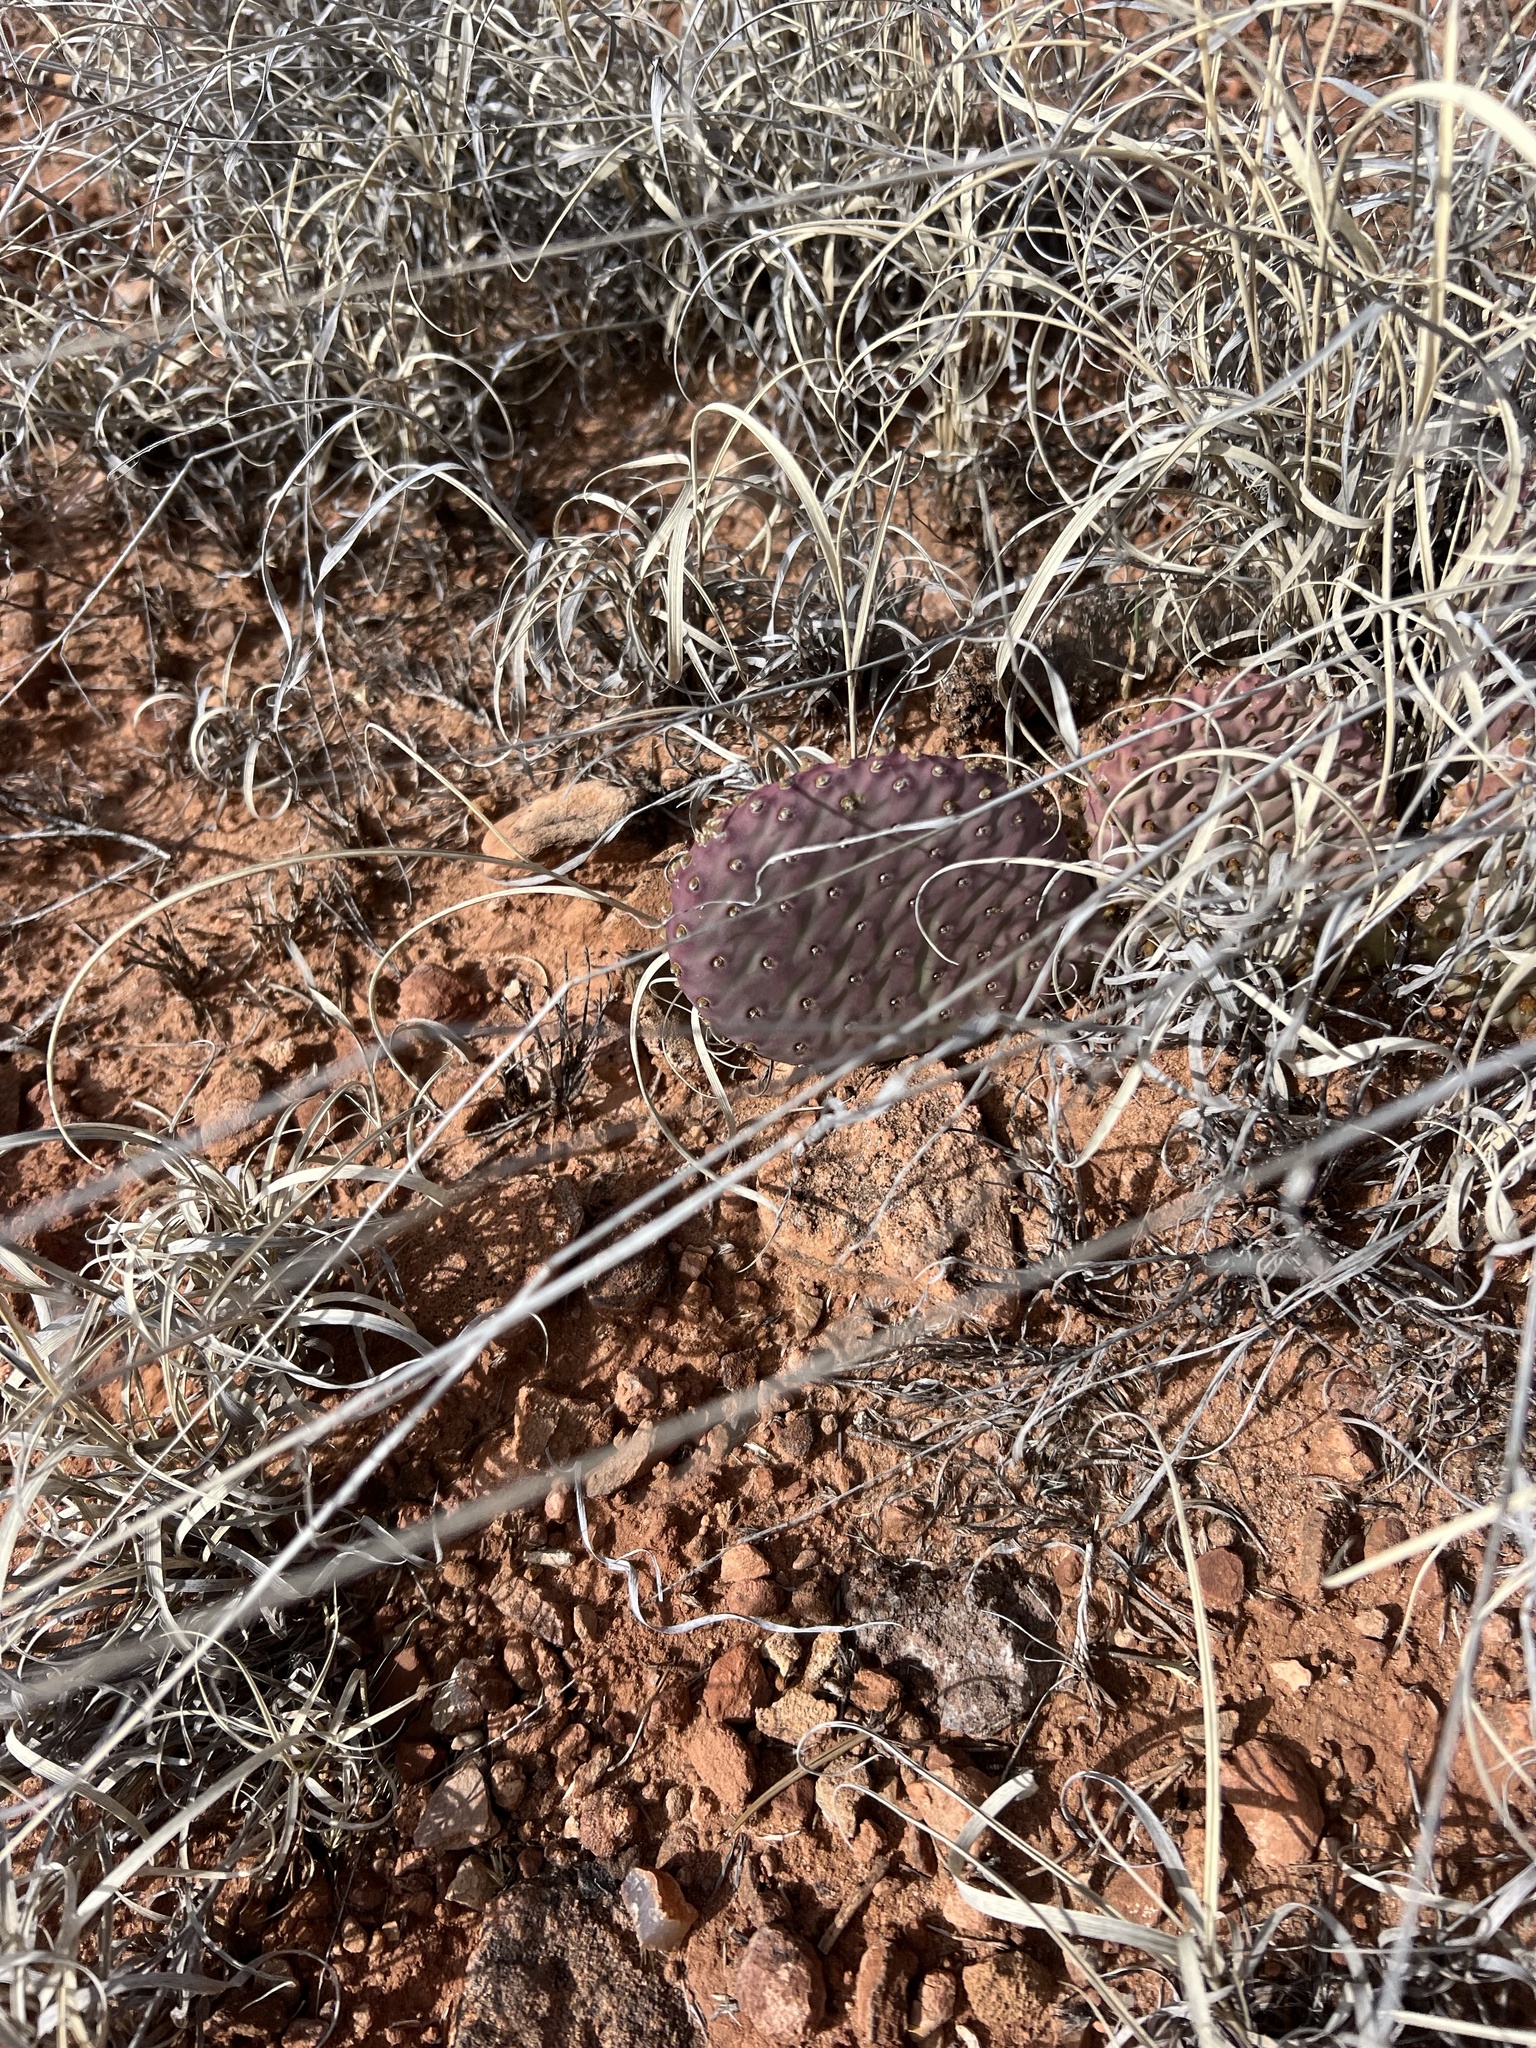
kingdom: Plantae
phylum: Tracheophyta
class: Magnoliopsida
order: Caryophyllales
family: Cactaceae
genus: Opuntia
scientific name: Opuntia aurea
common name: Golden prickly-pear
